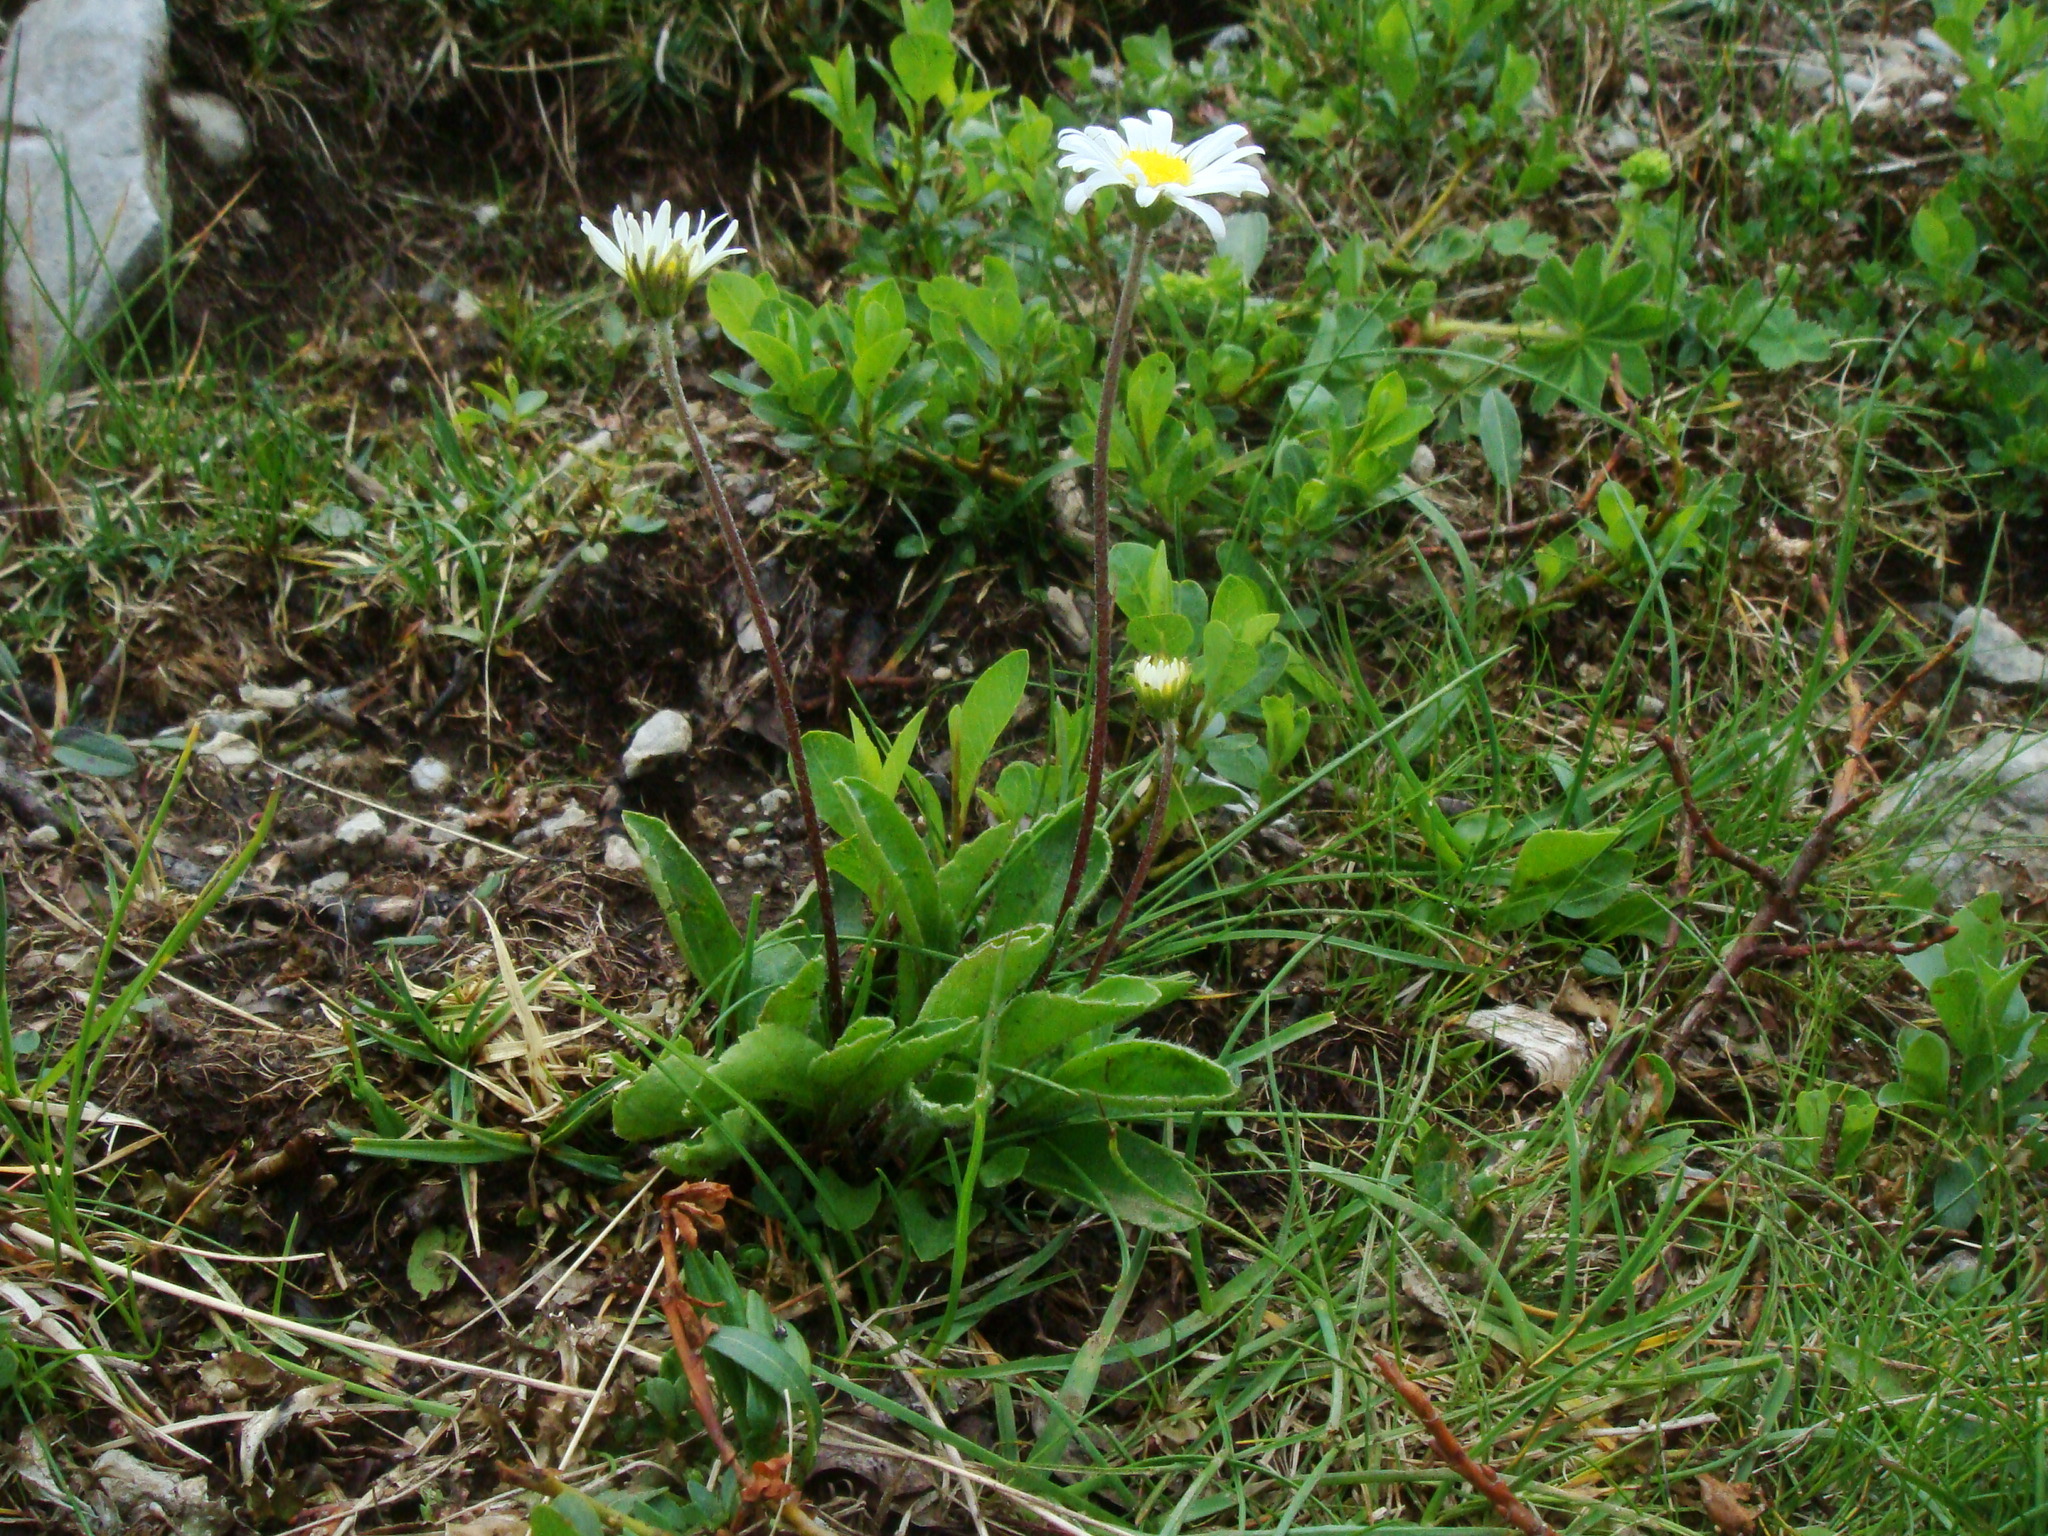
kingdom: Plantae
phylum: Tracheophyta
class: Magnoliopsida
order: Asterales
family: Asteraceae
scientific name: Asteraceae
